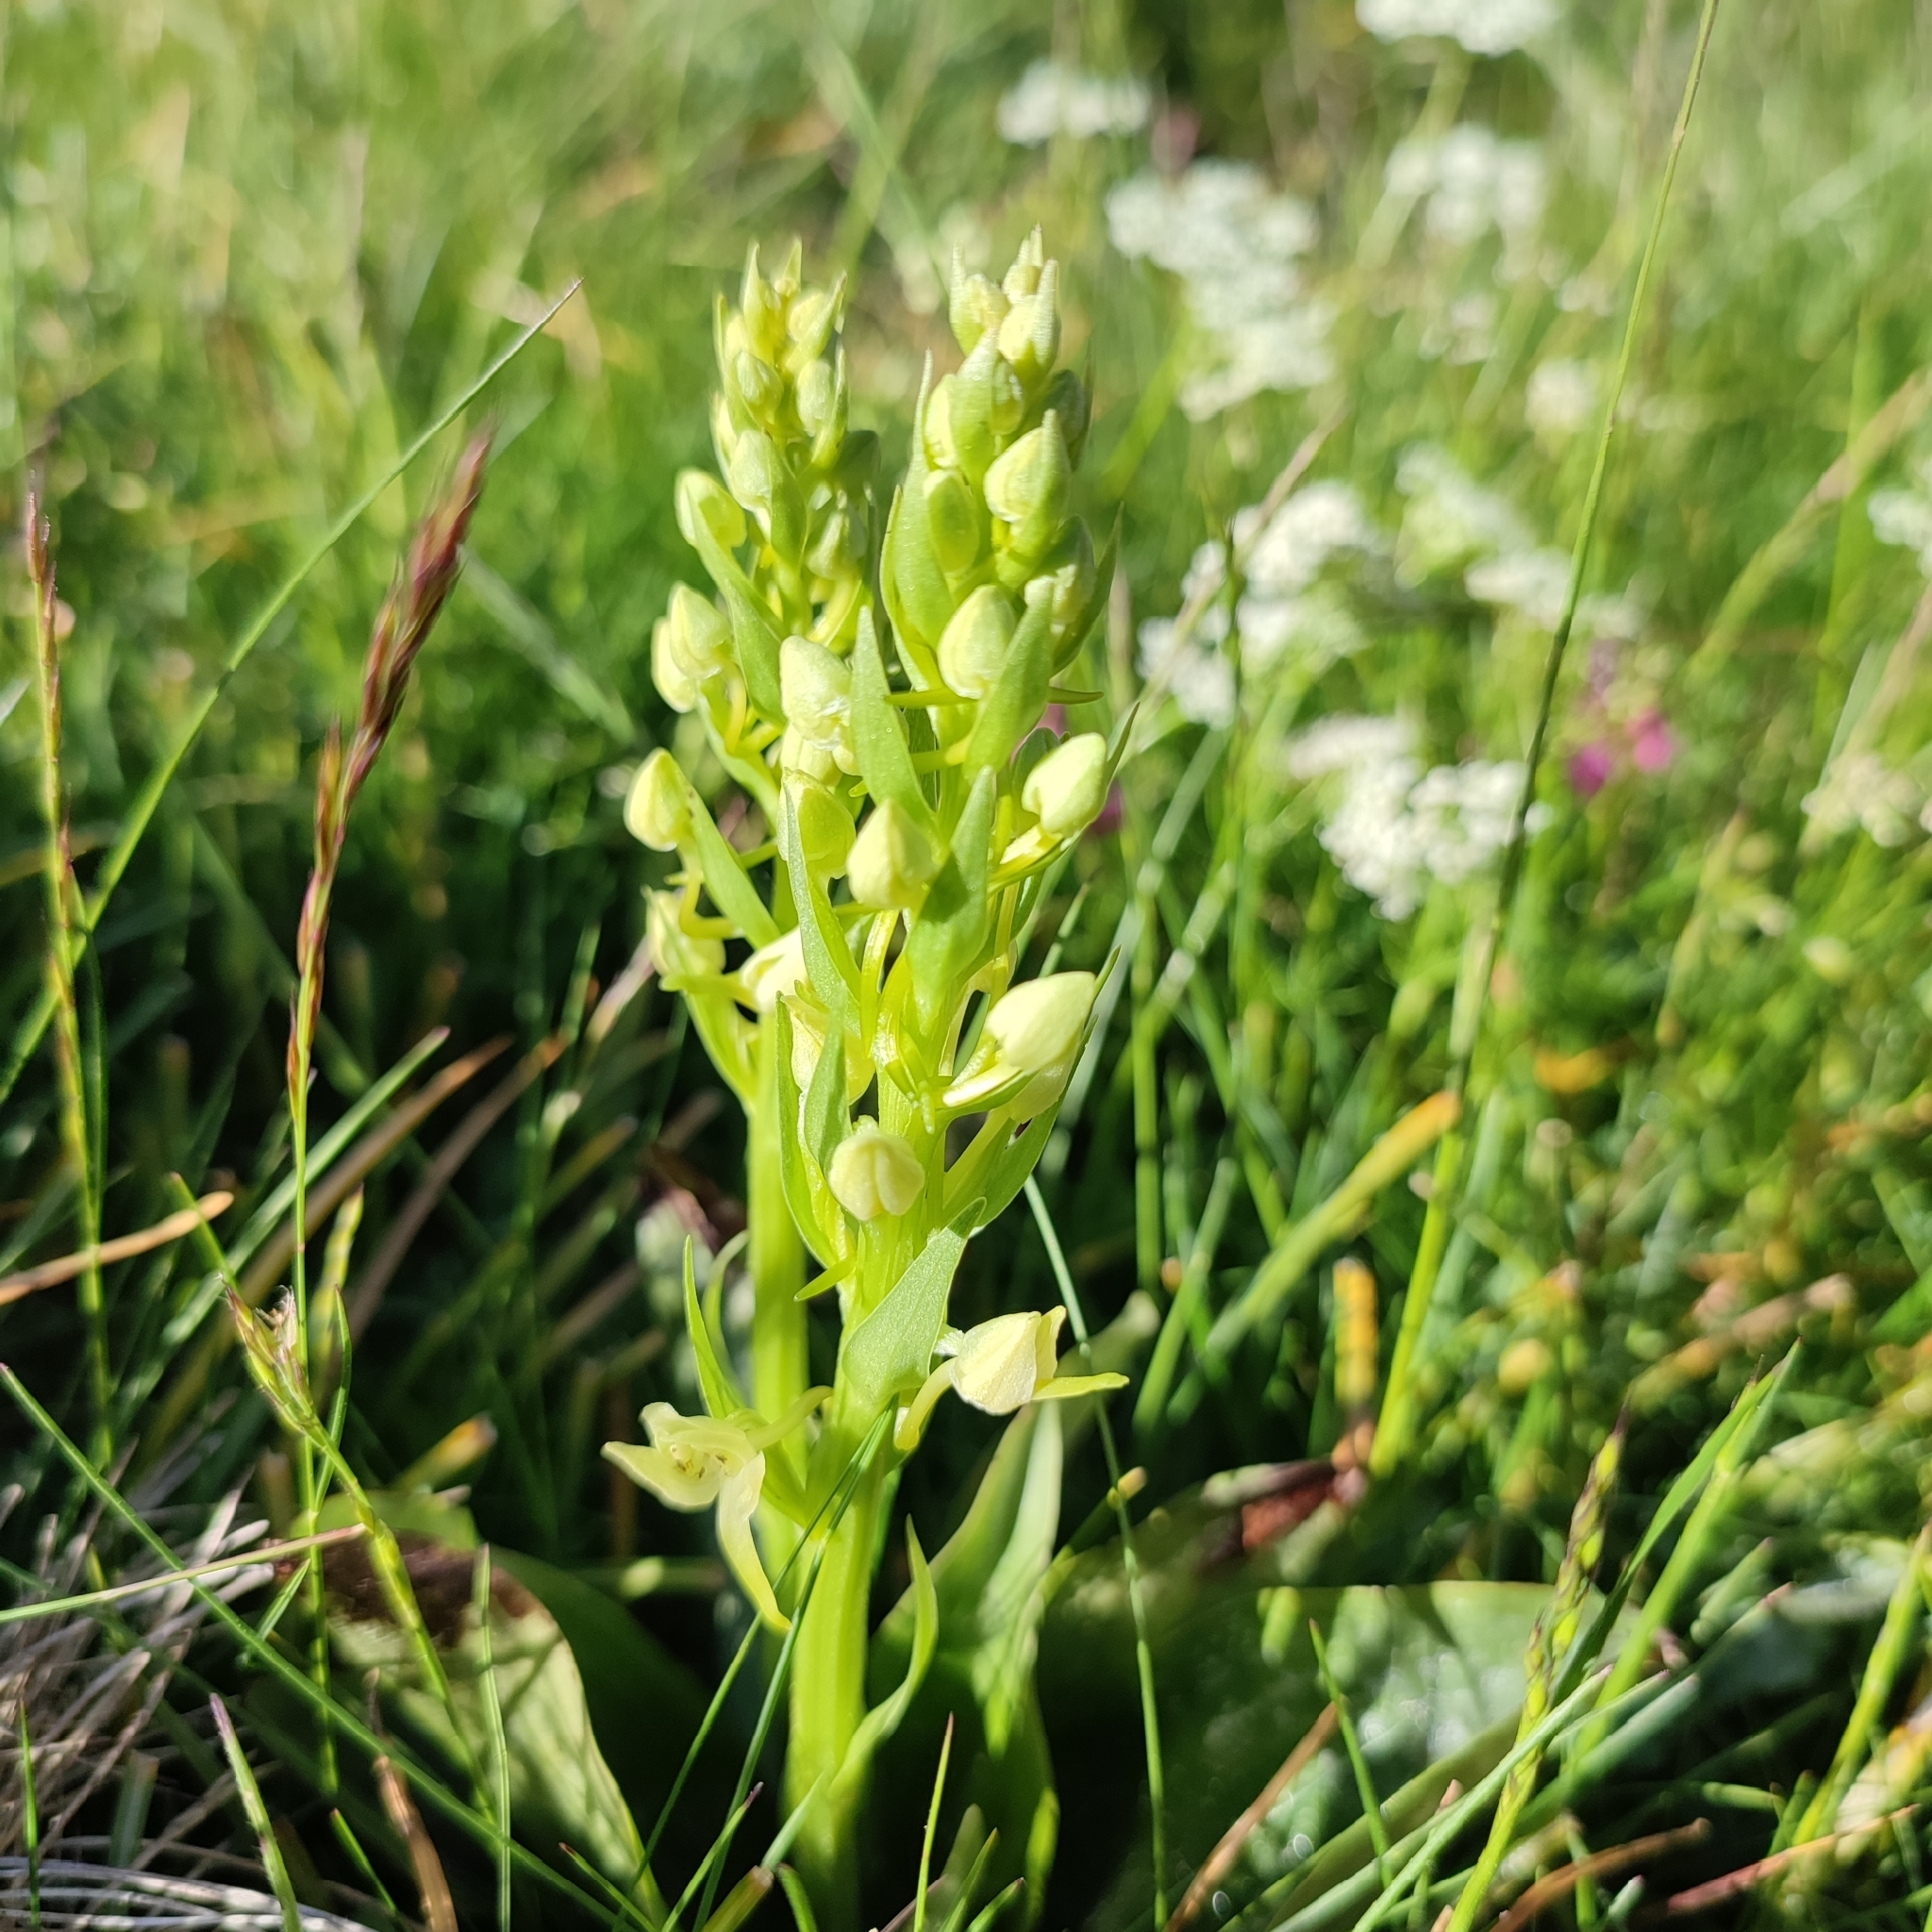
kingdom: Plantae
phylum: Tracheophyta
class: Liliopsida
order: Asparagales
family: Orchidaceae
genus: Platanthera
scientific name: Platanthera chlorantha
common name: Greater butterfly-orchid
